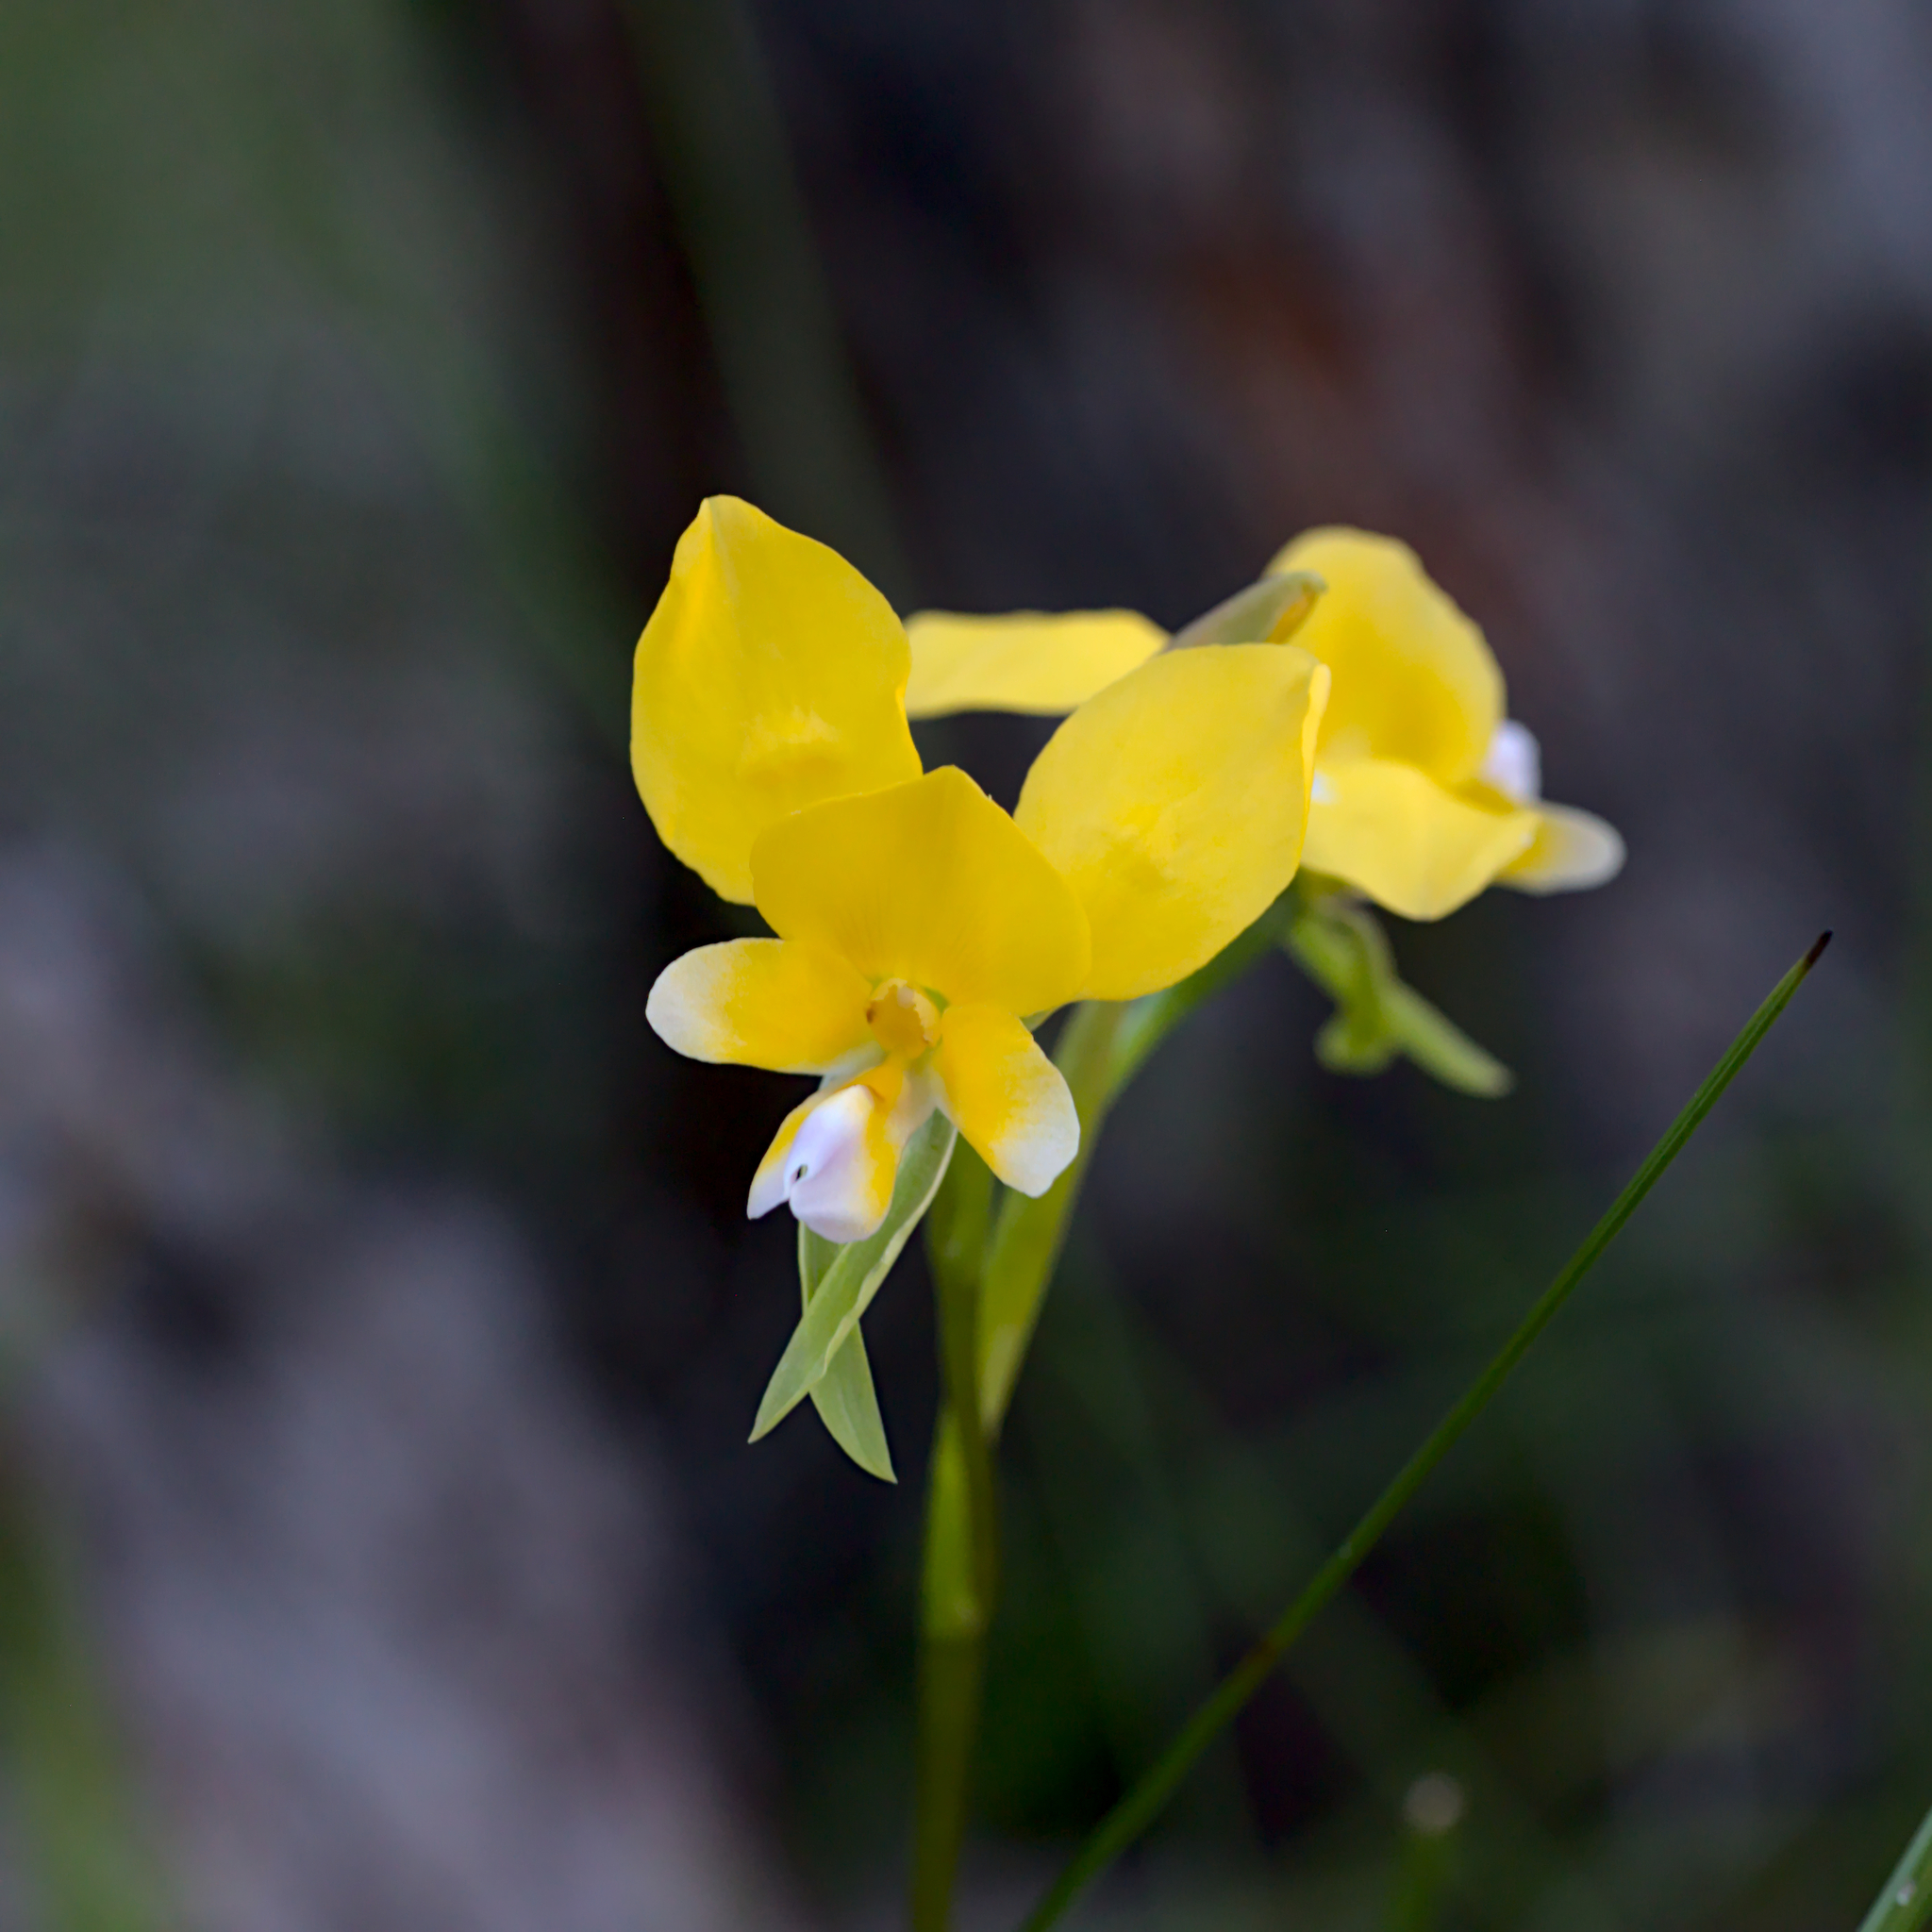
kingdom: Plantae
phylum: Tracheophyta
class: Liliopsida
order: Asparagales
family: Orchidaceae
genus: Diuris
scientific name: Diuris corymbosa
